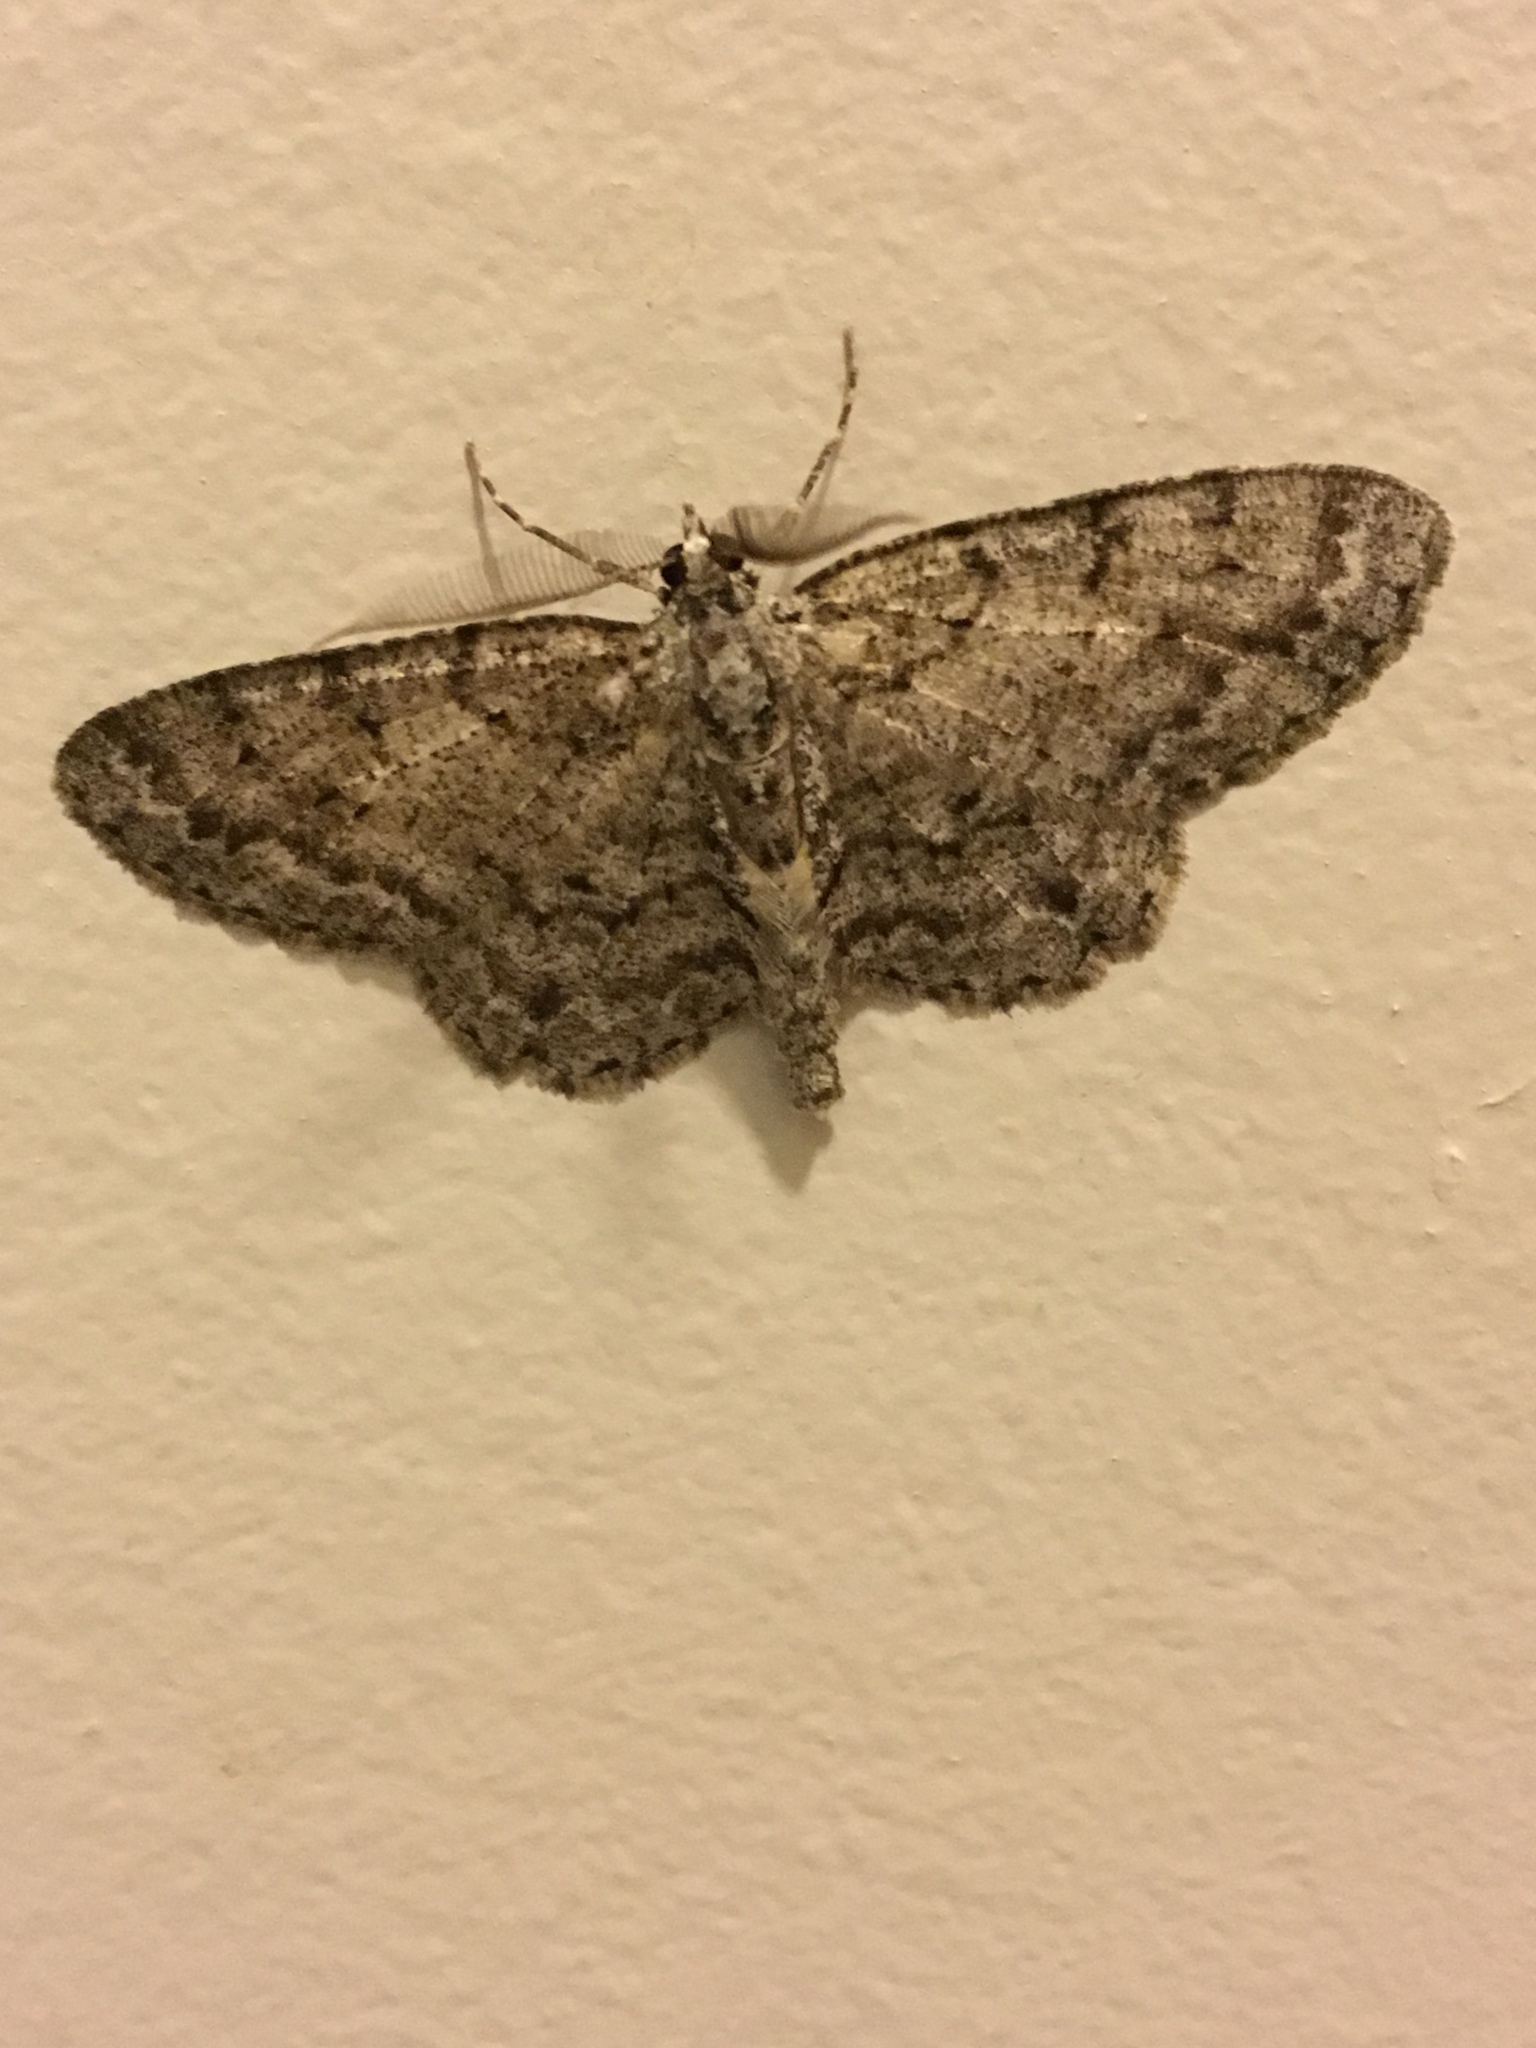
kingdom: Animalia
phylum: Arthropoda
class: Insecta
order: Lepidoptera
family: Geometridae
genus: Protoboarmia
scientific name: Protoboarmia porcelaria
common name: Porcelain gray
